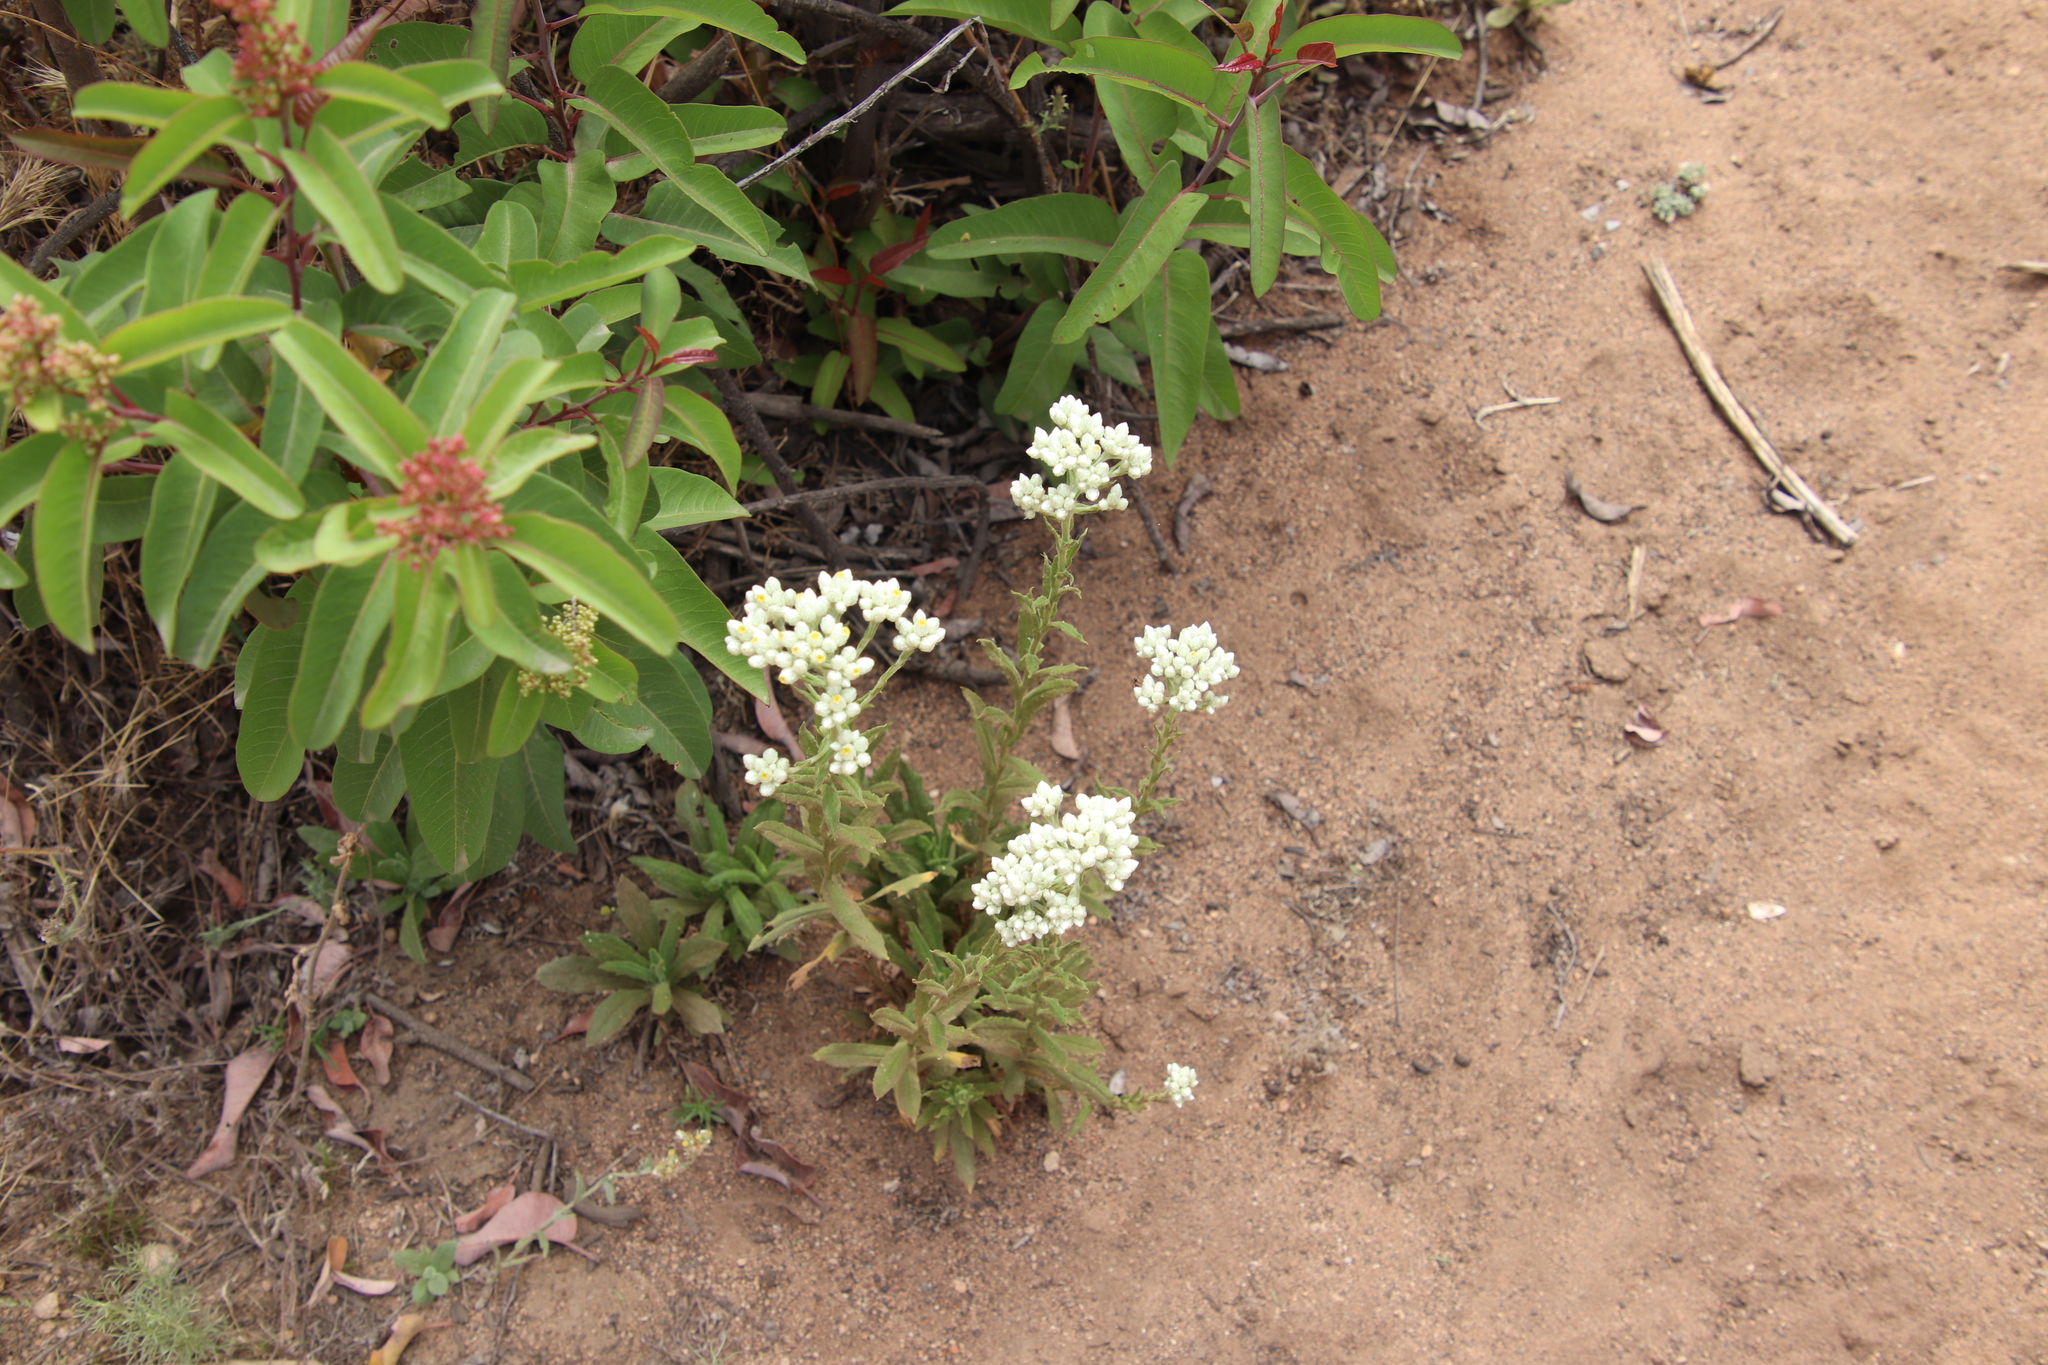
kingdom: Plantae
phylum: Tracheophyta
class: Magnoliopsida
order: Asterales
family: Asteraceae
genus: Pseudognaphalium
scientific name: Pseudognaphalium californicum
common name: California rabbit-tobacco
